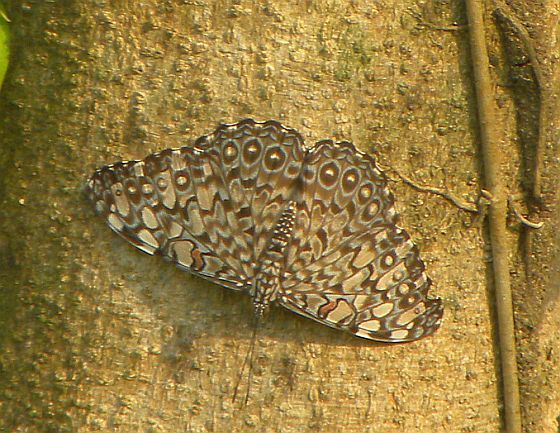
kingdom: Animalia
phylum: Arthropoda
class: Insecta
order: Lepidoptera
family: Nymphalidae
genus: Hamadryas
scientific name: Hamadryas feronia
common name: Variable cracker
